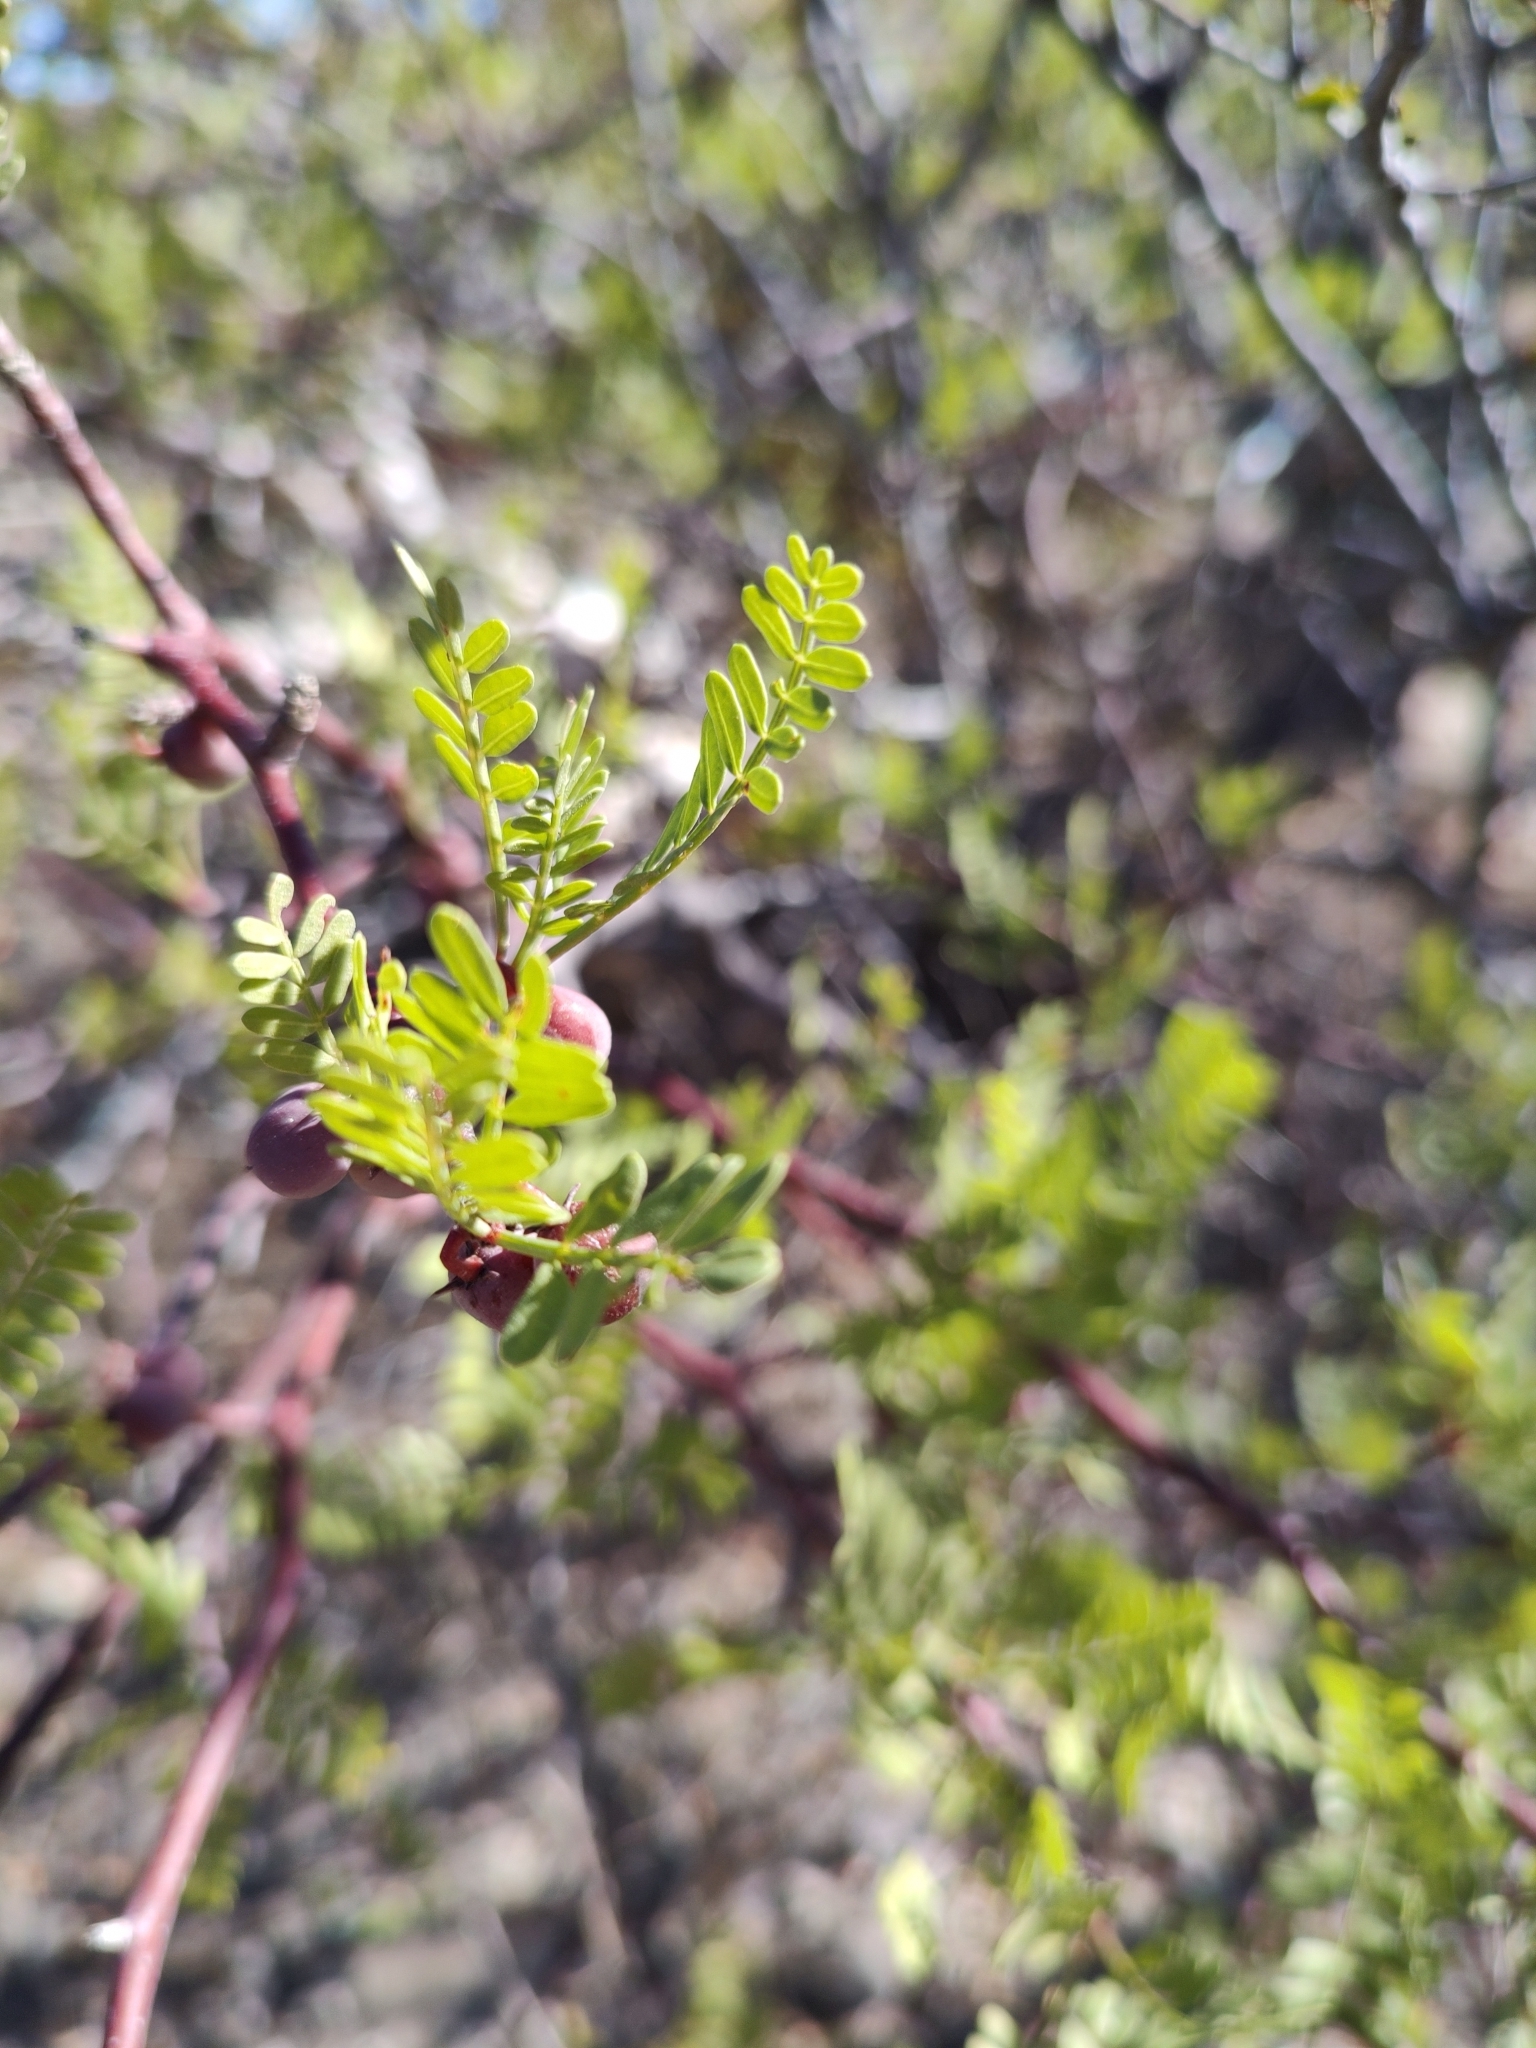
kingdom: Plantae
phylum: Tracheophyta
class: Magnoliopsida
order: Sapindales
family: Burseraceae
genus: Bursera
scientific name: Bursera microphylla
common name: Elephant tree
